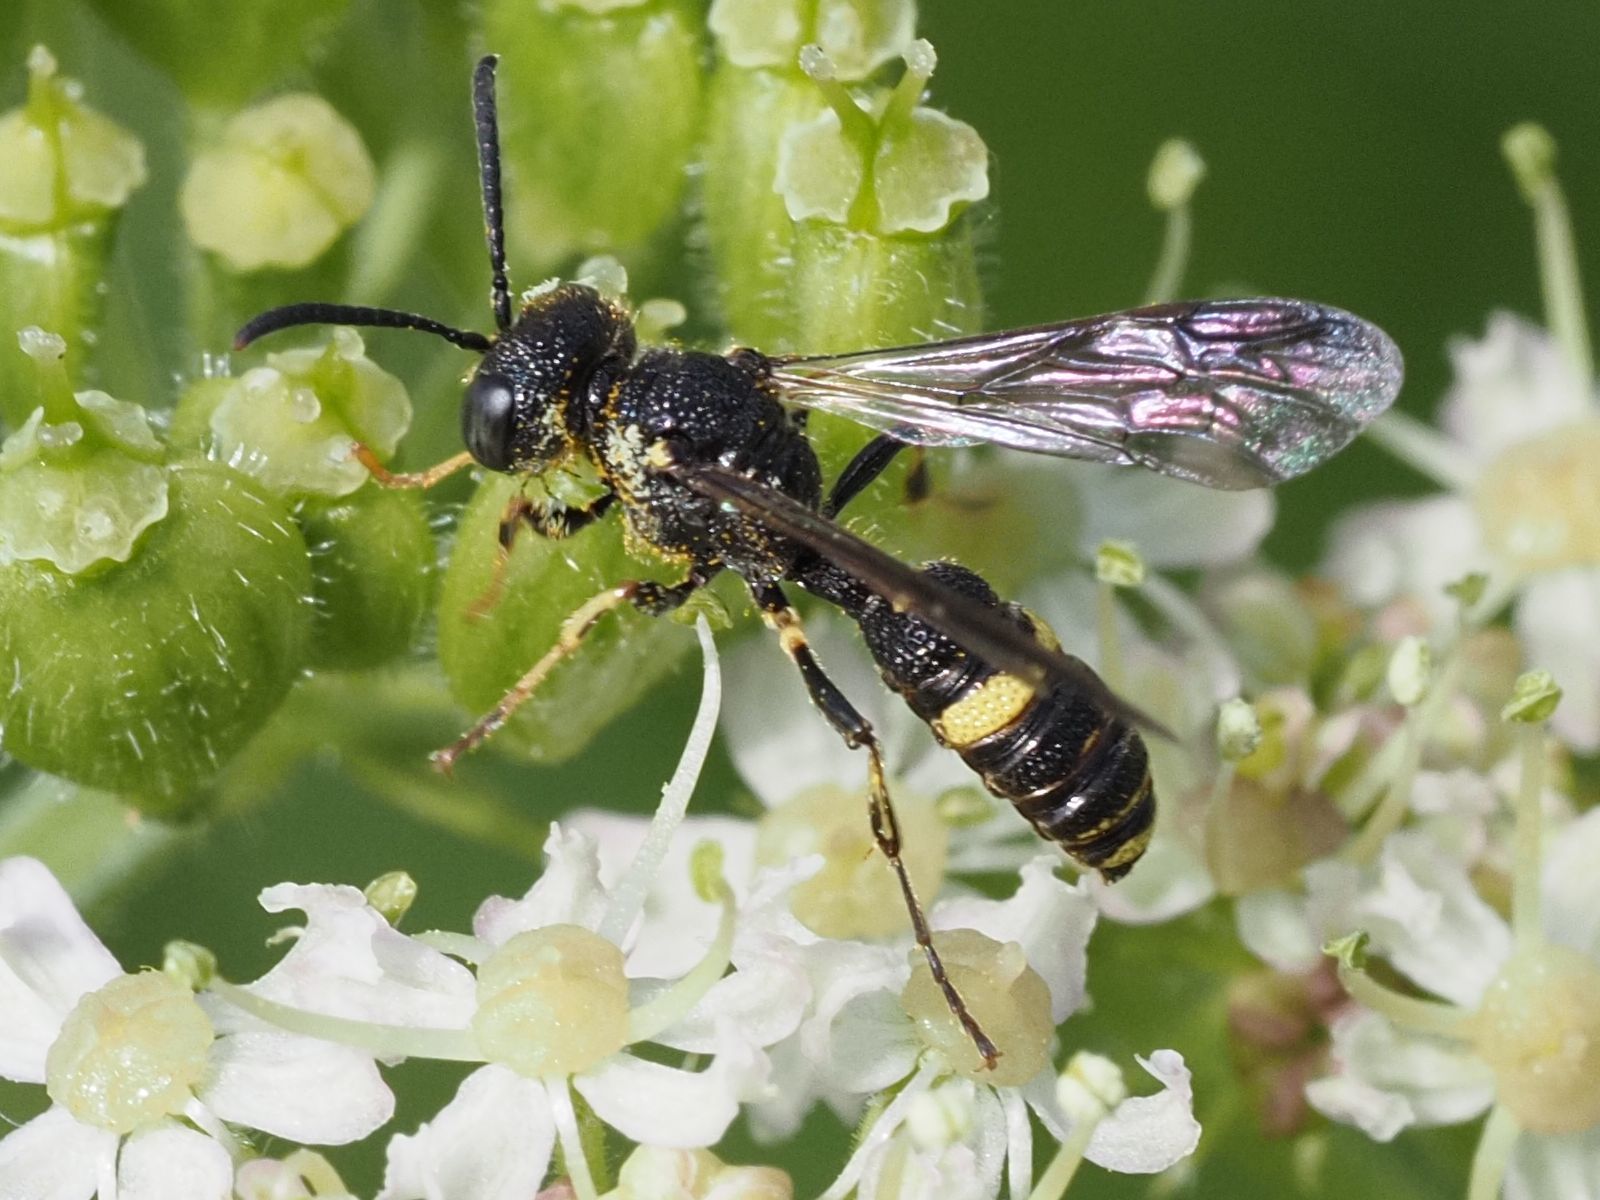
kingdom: Animalia
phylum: Arthropoda
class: Insecta
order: Hymenoptera
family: Crabronidae
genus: Cerceris
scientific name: Cerceris hortivaga
